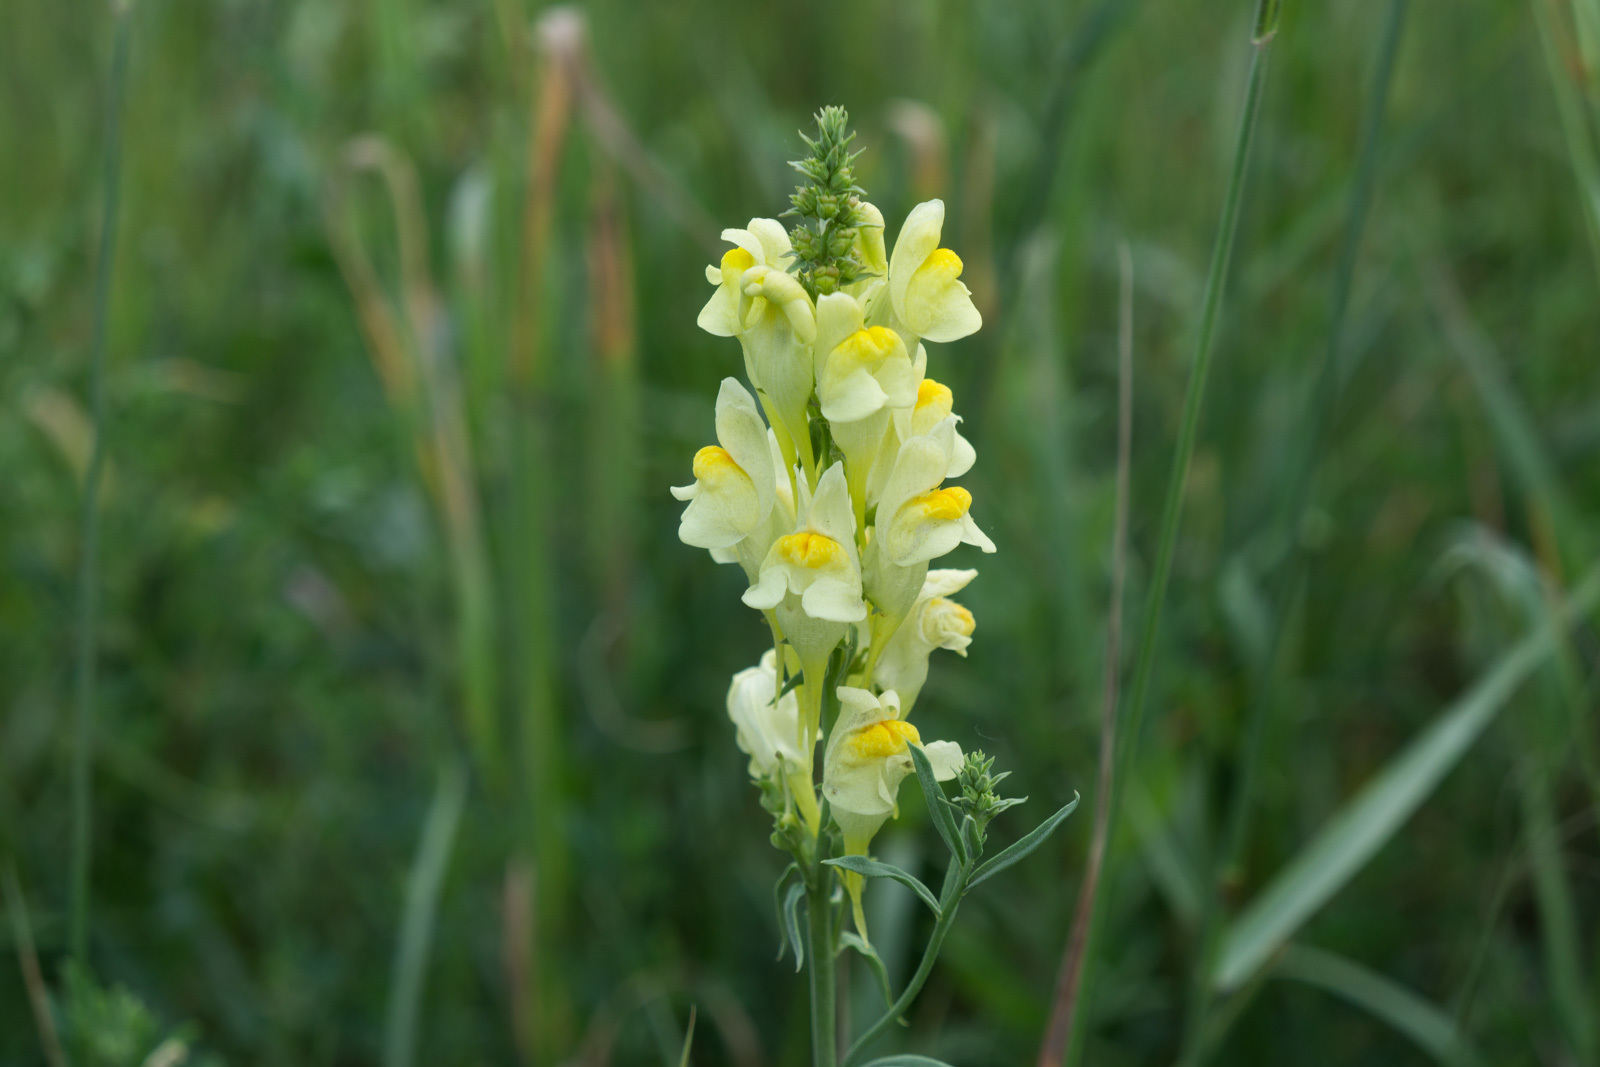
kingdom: Plantae
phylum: Tracheophyta
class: Magnoliopsida
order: Lamiales
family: Plantaginaceae
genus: Linaria
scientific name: Linaria vulgaris
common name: Butter and eggs
